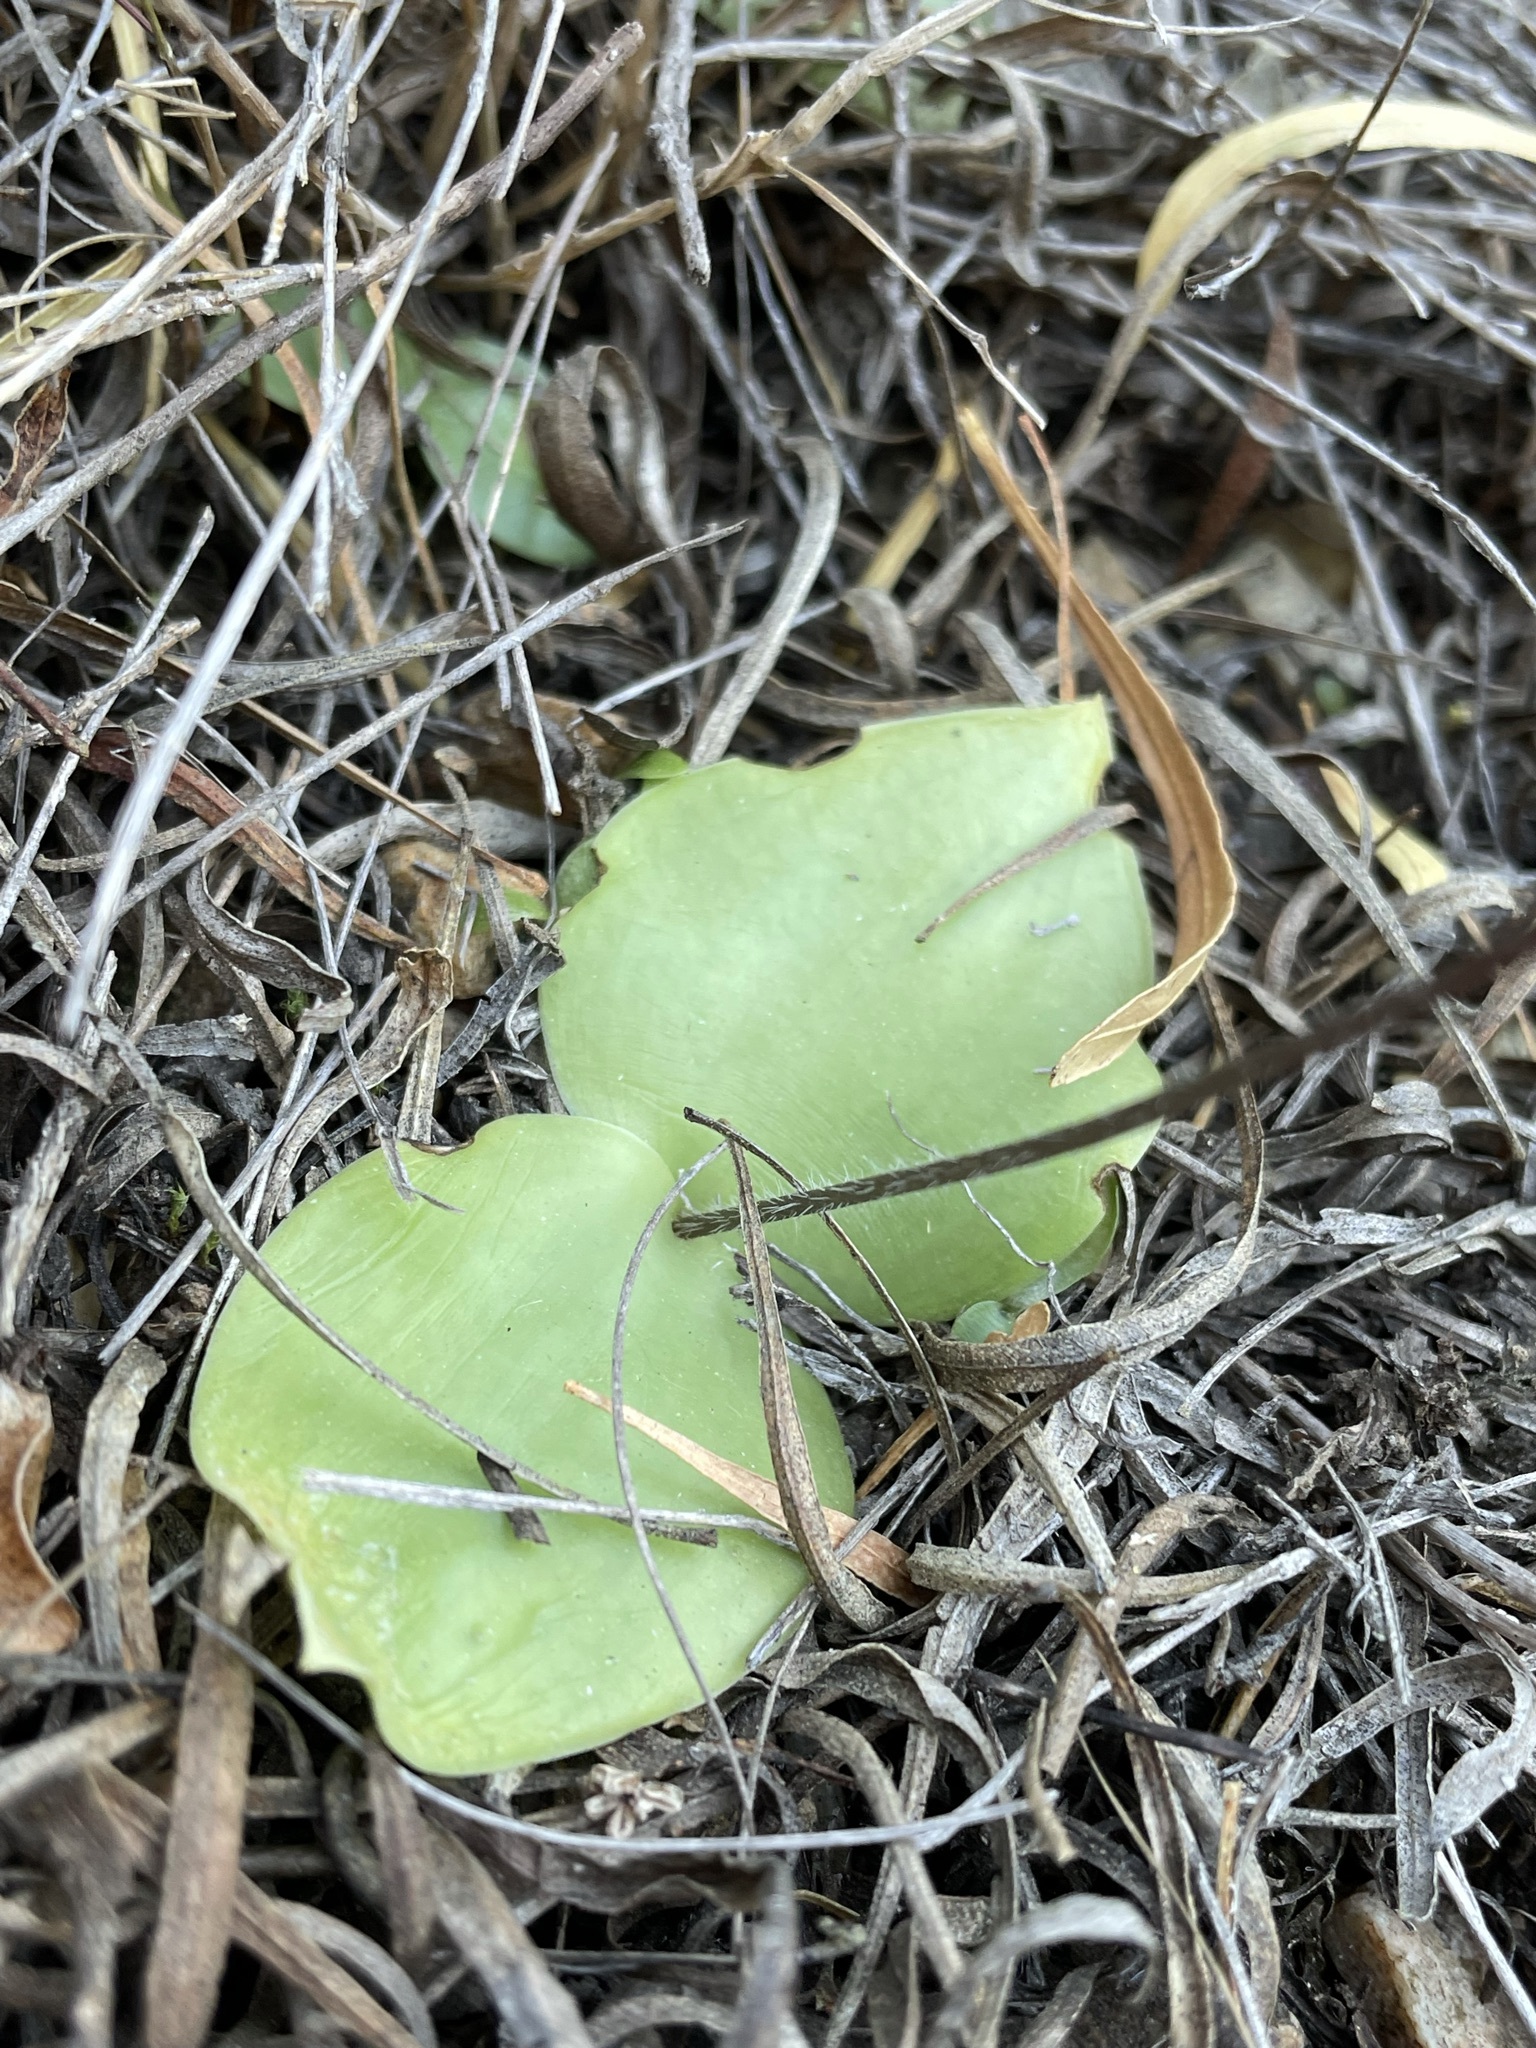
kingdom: Plantae
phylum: Tracheophyta
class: Liliopsida
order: Asparagales
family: Orchidaceae
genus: Holothrix
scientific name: Holothrix parviflora
